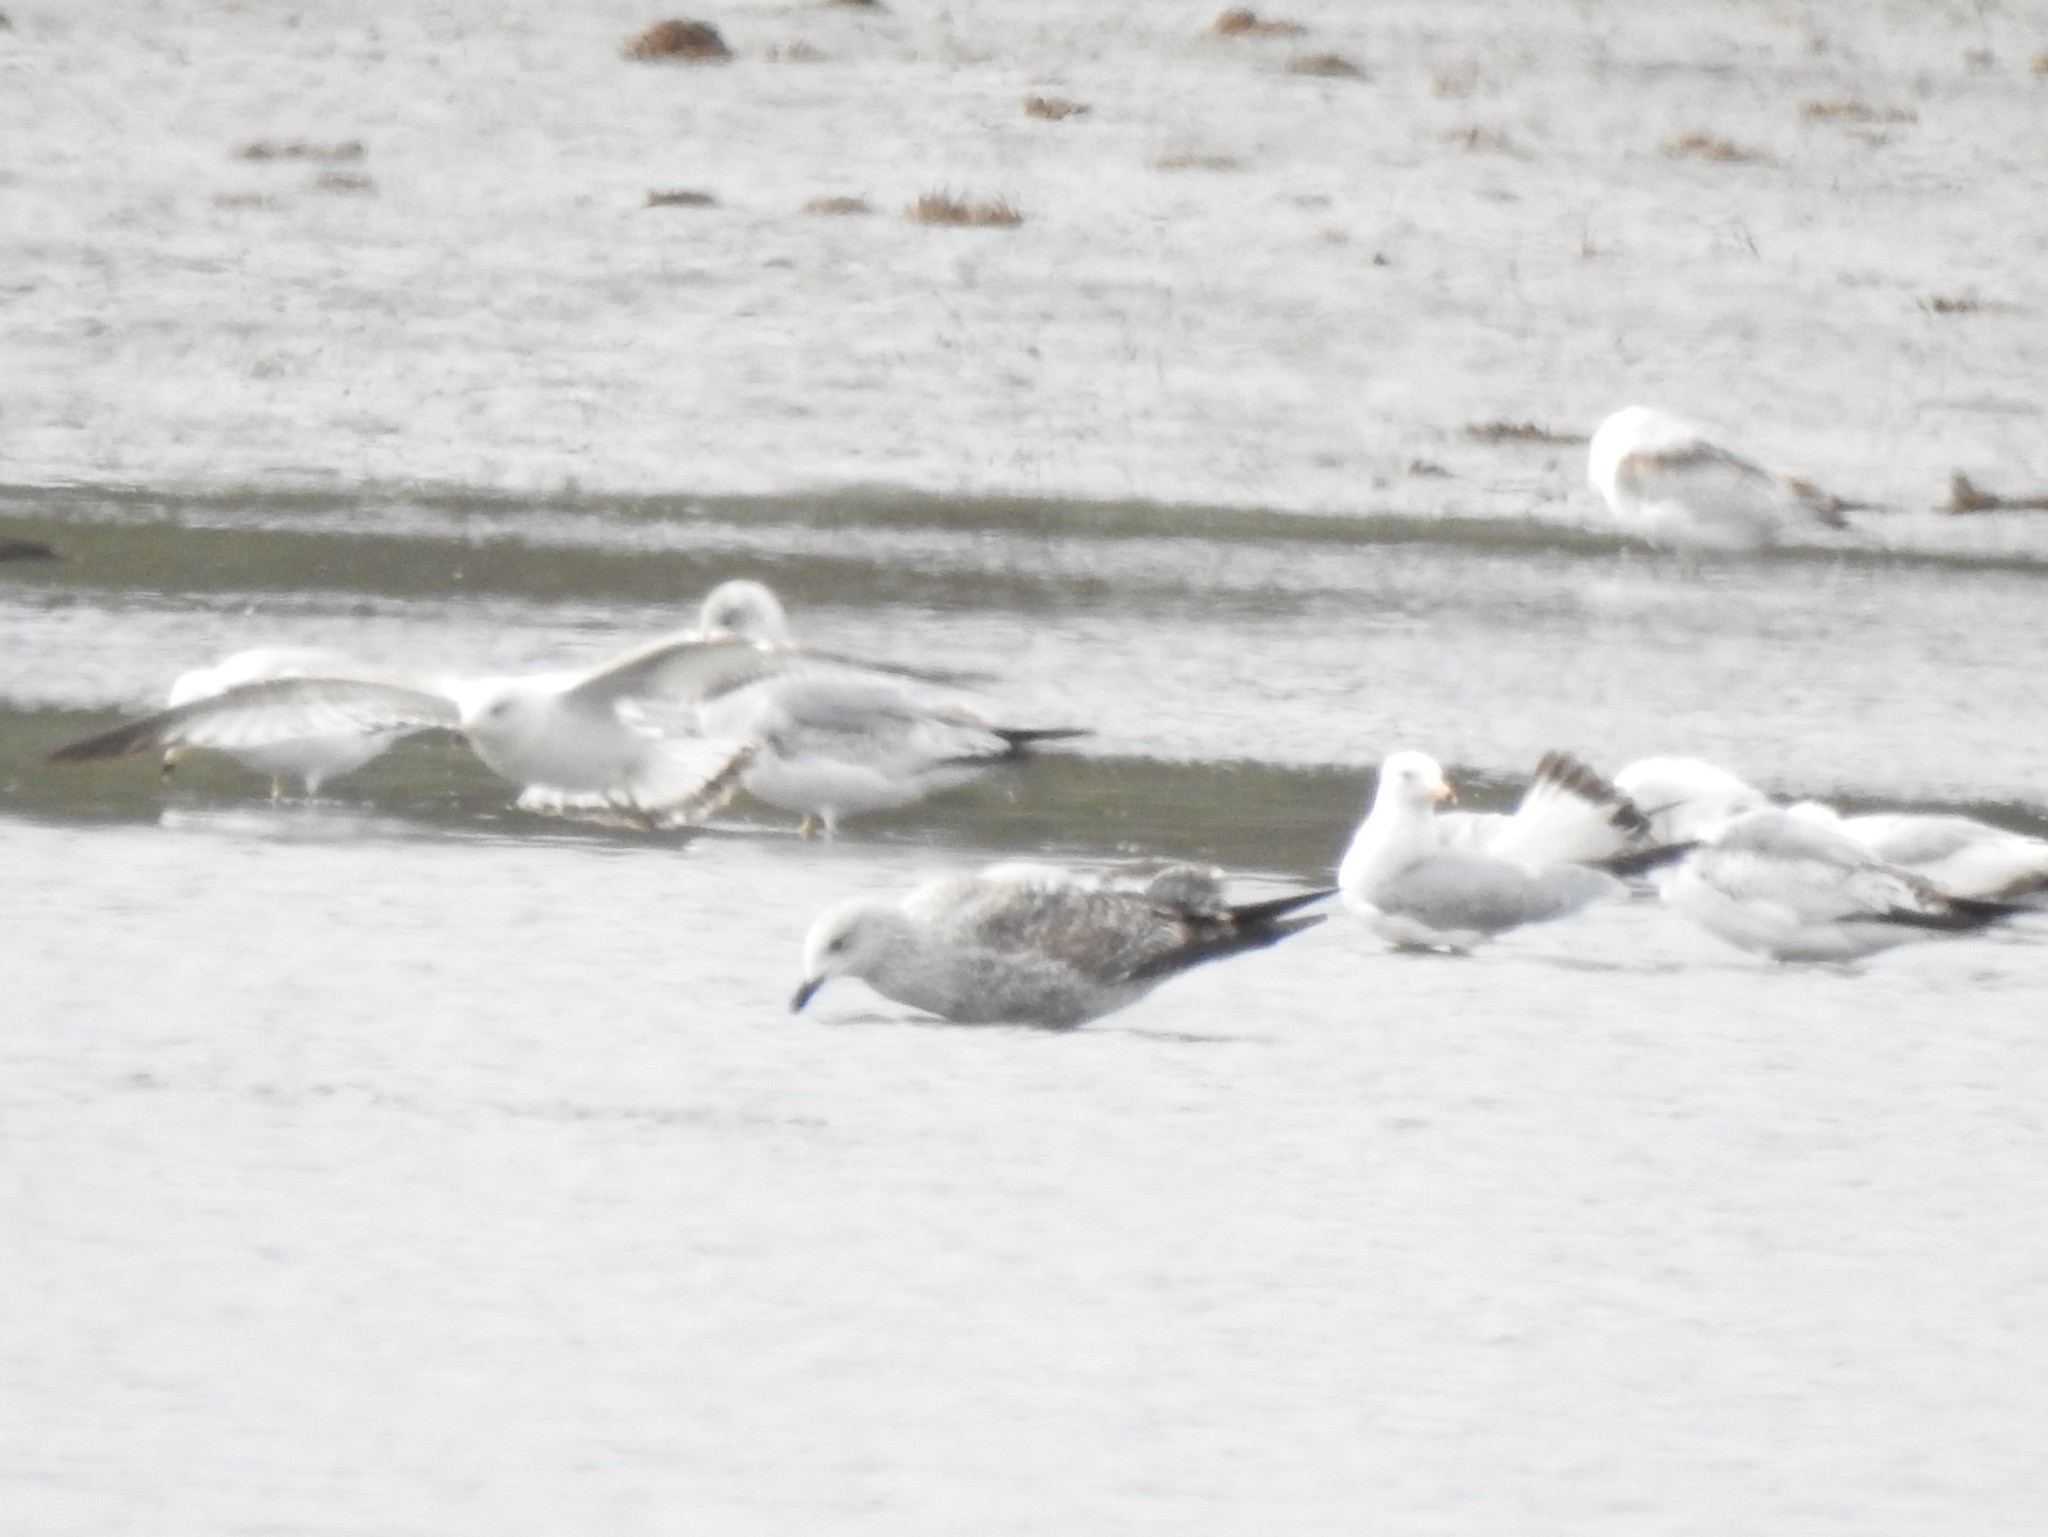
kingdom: Animalia
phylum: Chordata
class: Aves
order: Charadriiformes
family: Laridae
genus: Larus
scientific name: Larus fuscus
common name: Lesser black-backed gull
